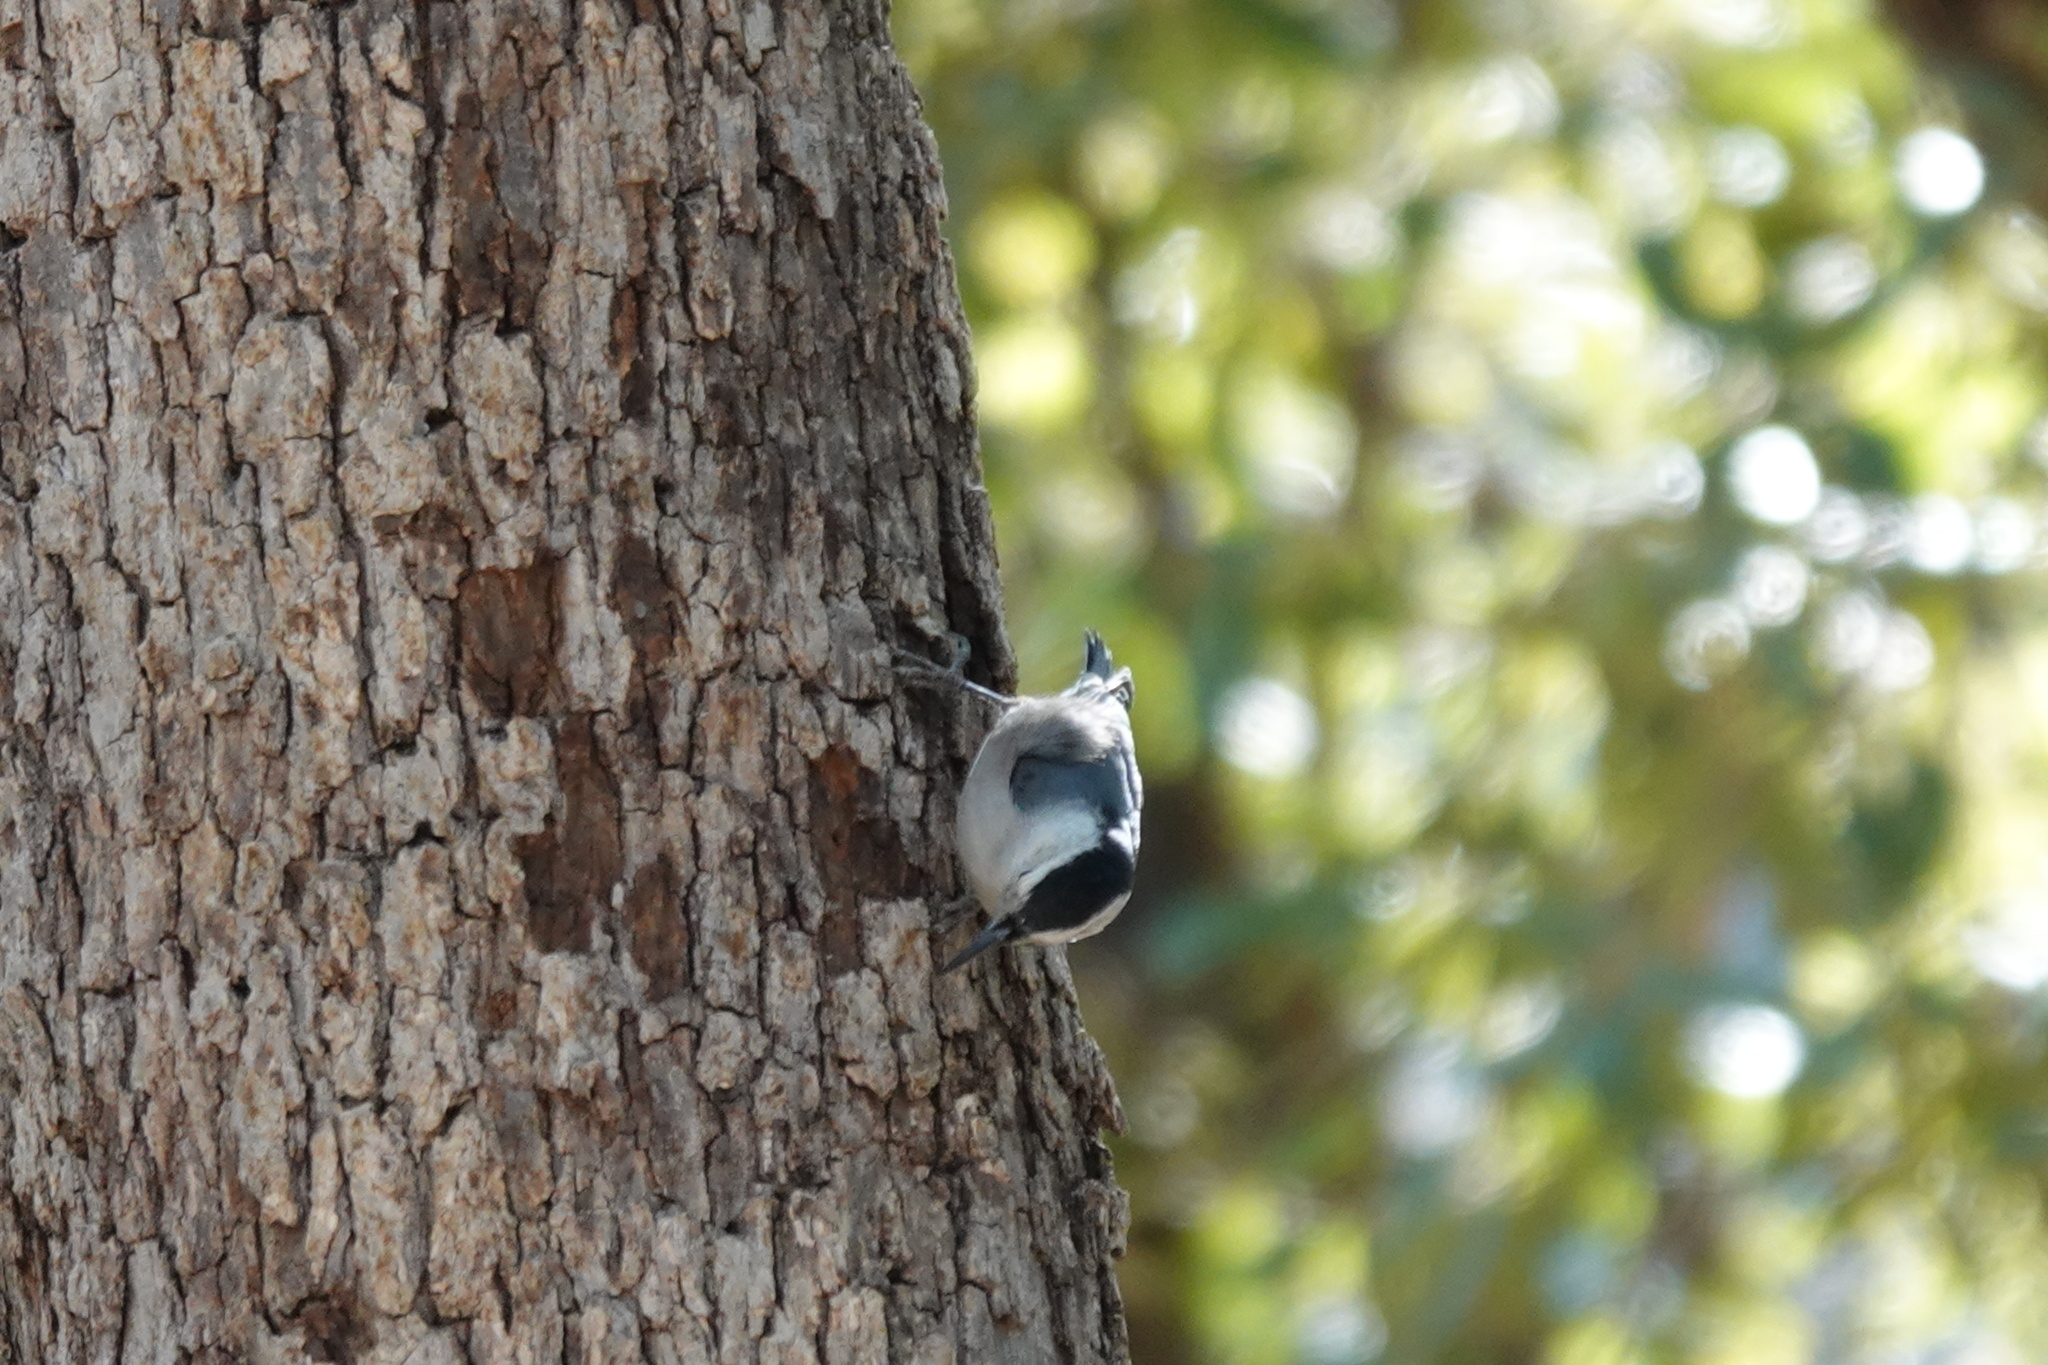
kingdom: Animalia
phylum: Chordata
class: Aves
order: Passeriformes
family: Sittidae
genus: Sitta
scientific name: Sitta carolinensis
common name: White-breasted nuthatch
